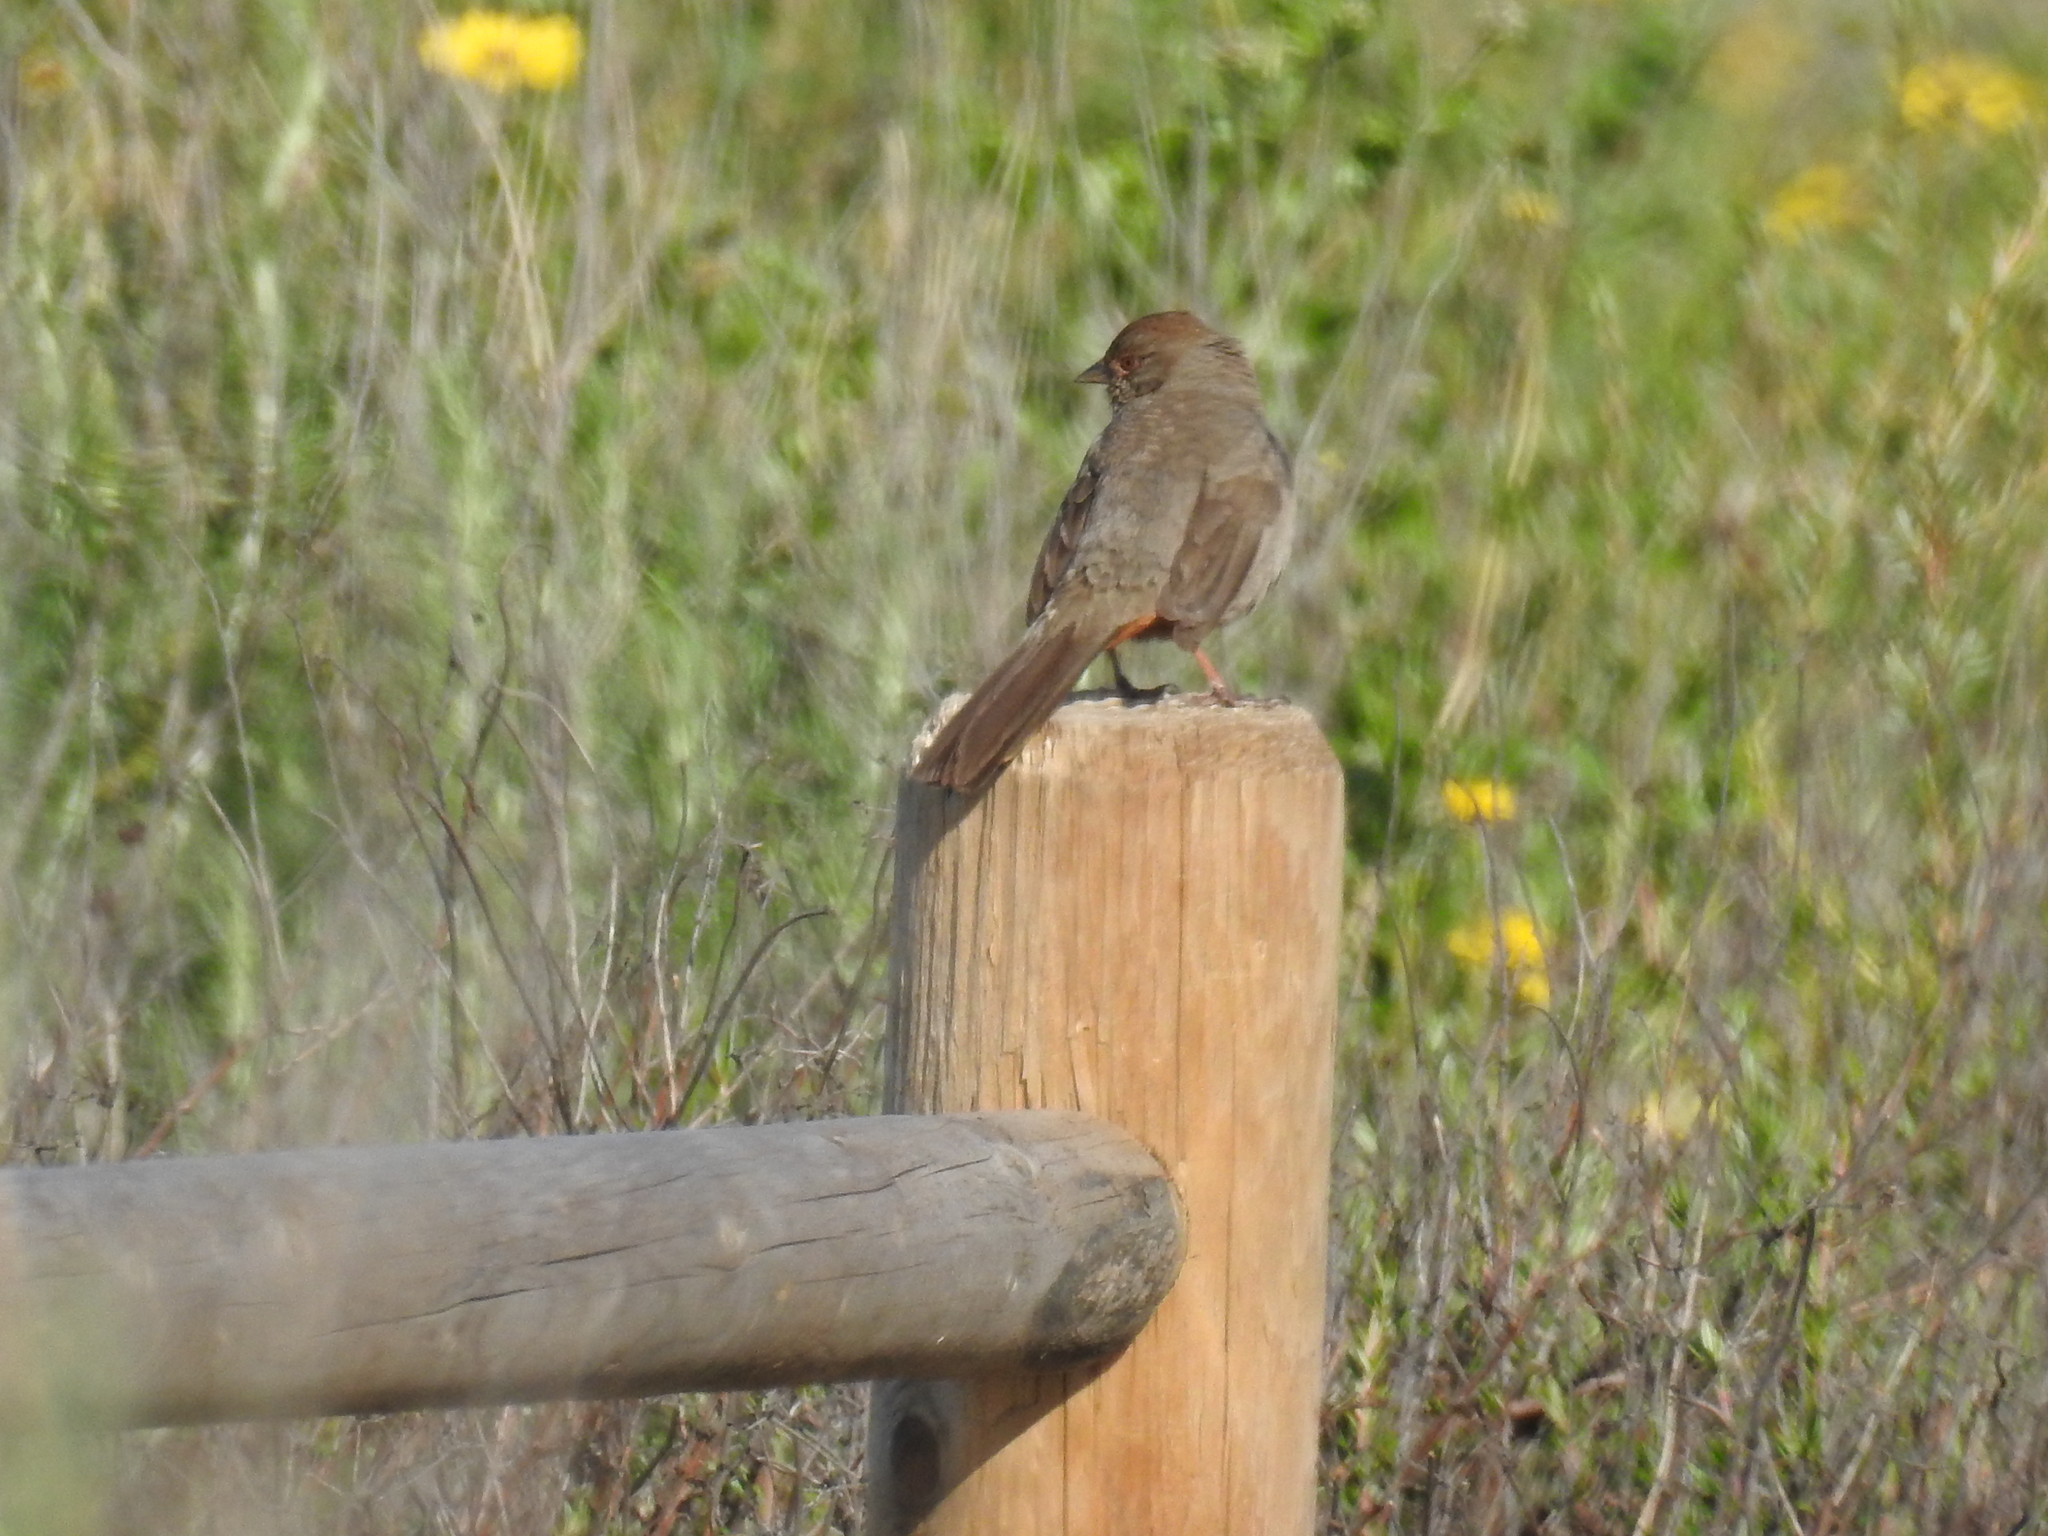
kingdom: Animalia
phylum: Chordata
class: Aves
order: Passeriformes
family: Passerellidae
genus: Melozone
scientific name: Melozone crissalis
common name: California towhee
